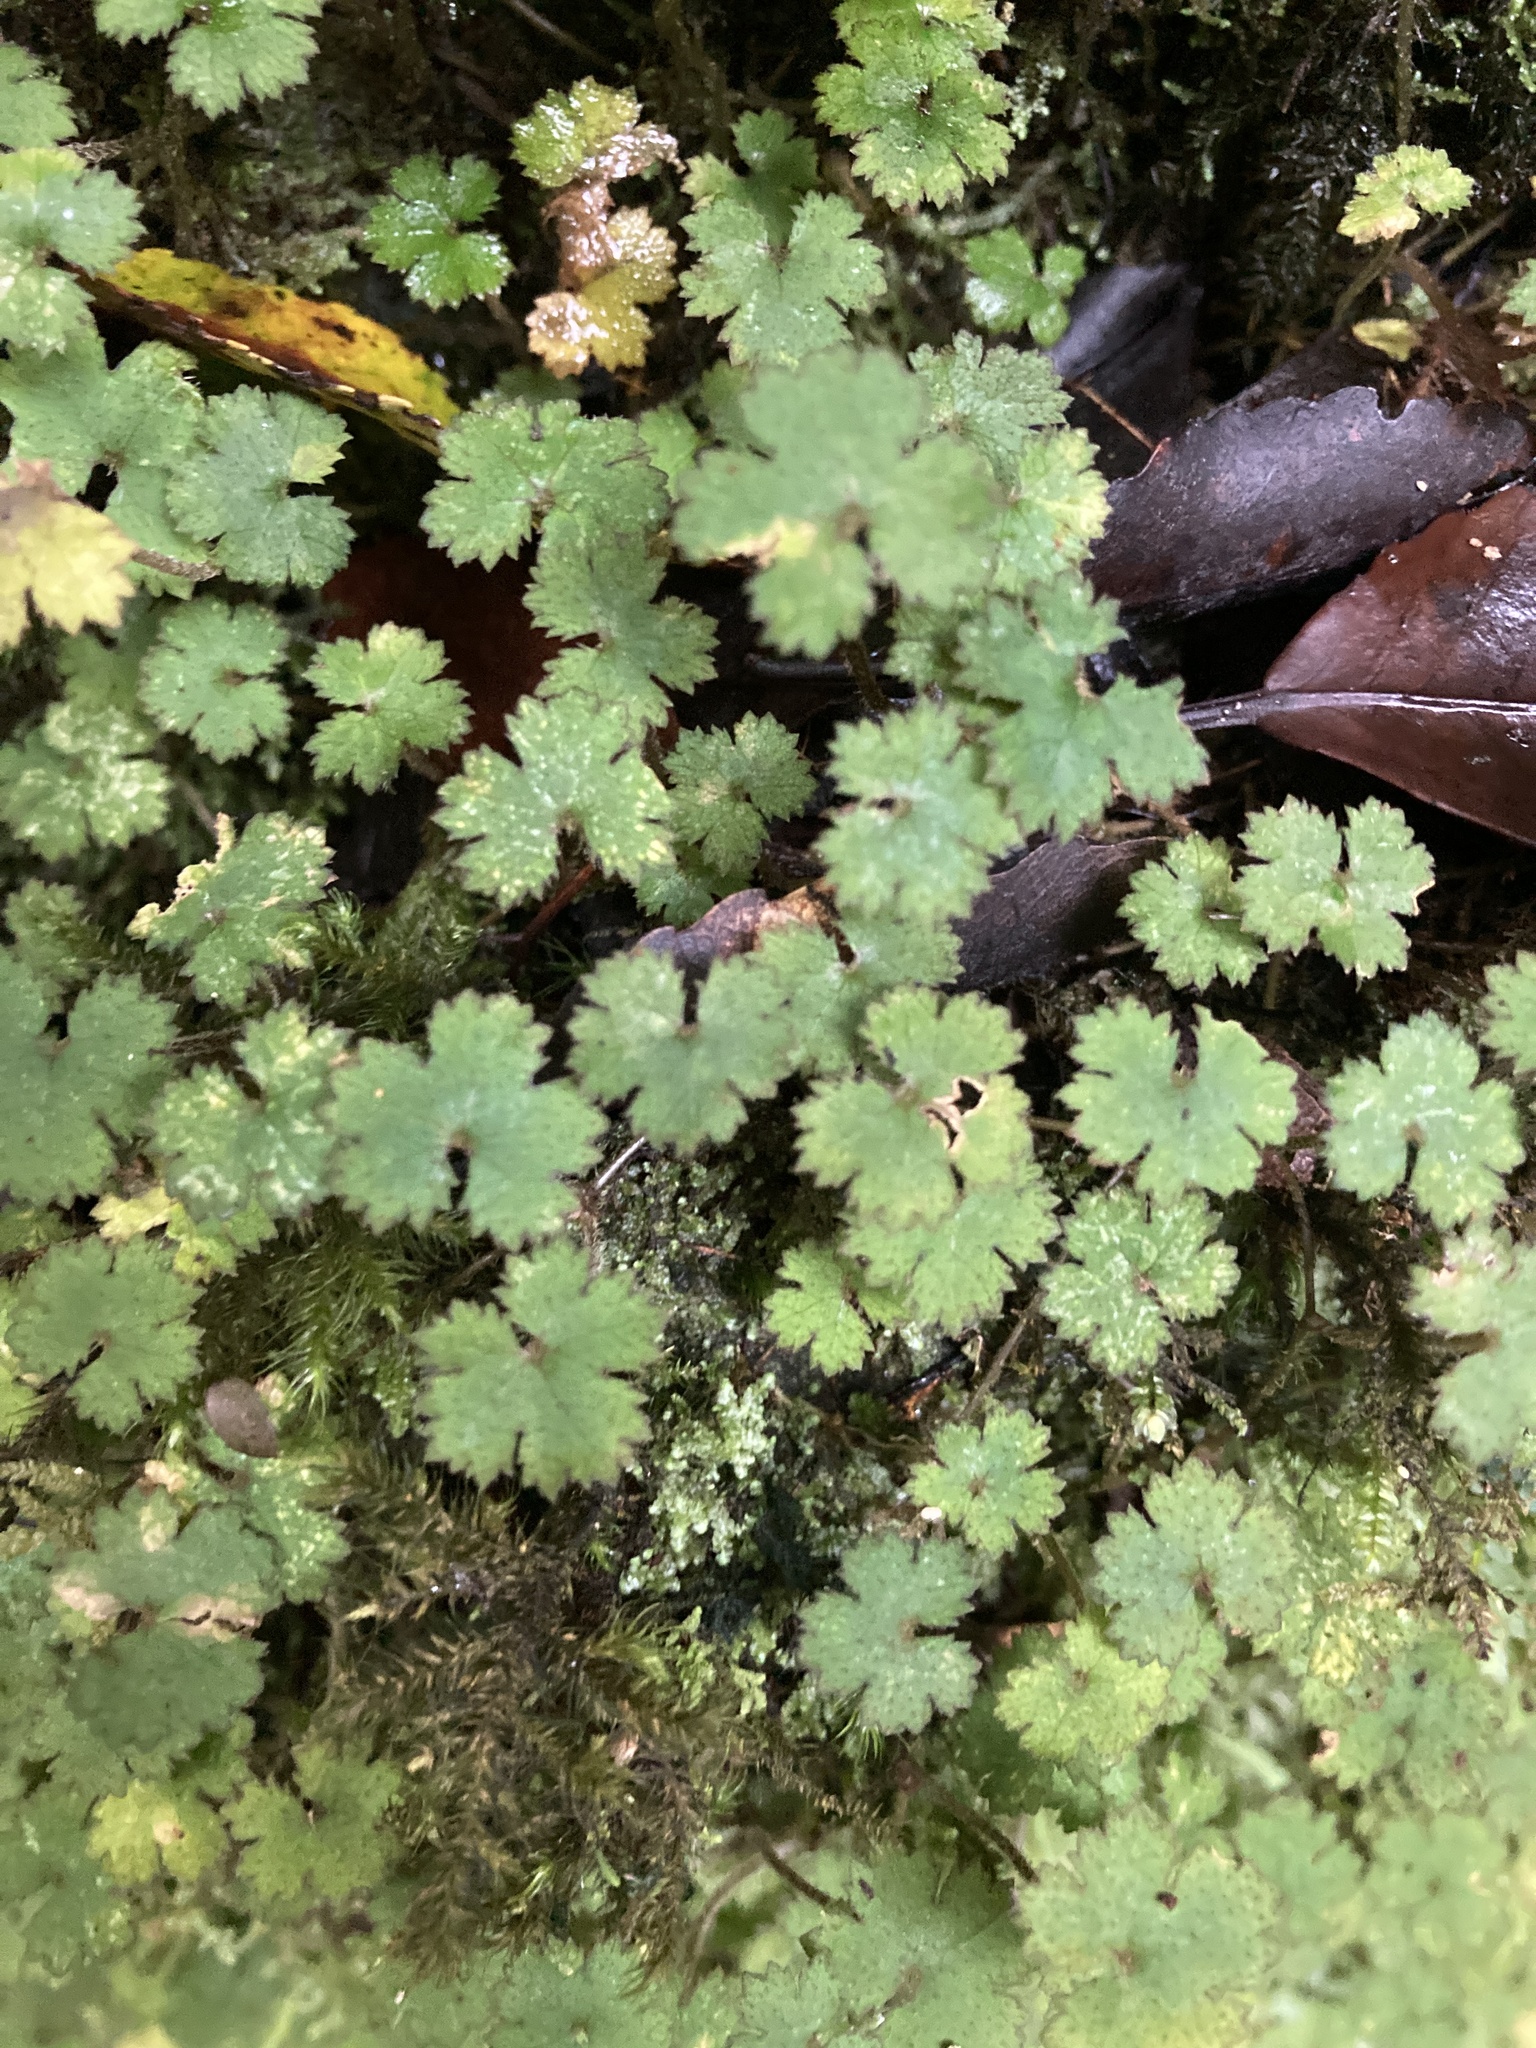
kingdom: Plantae
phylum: Tracheophyta
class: Magnoliopsida
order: Apiales
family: Araliaceae
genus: Hydrocotyle
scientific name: Hydrocotyle elongata
